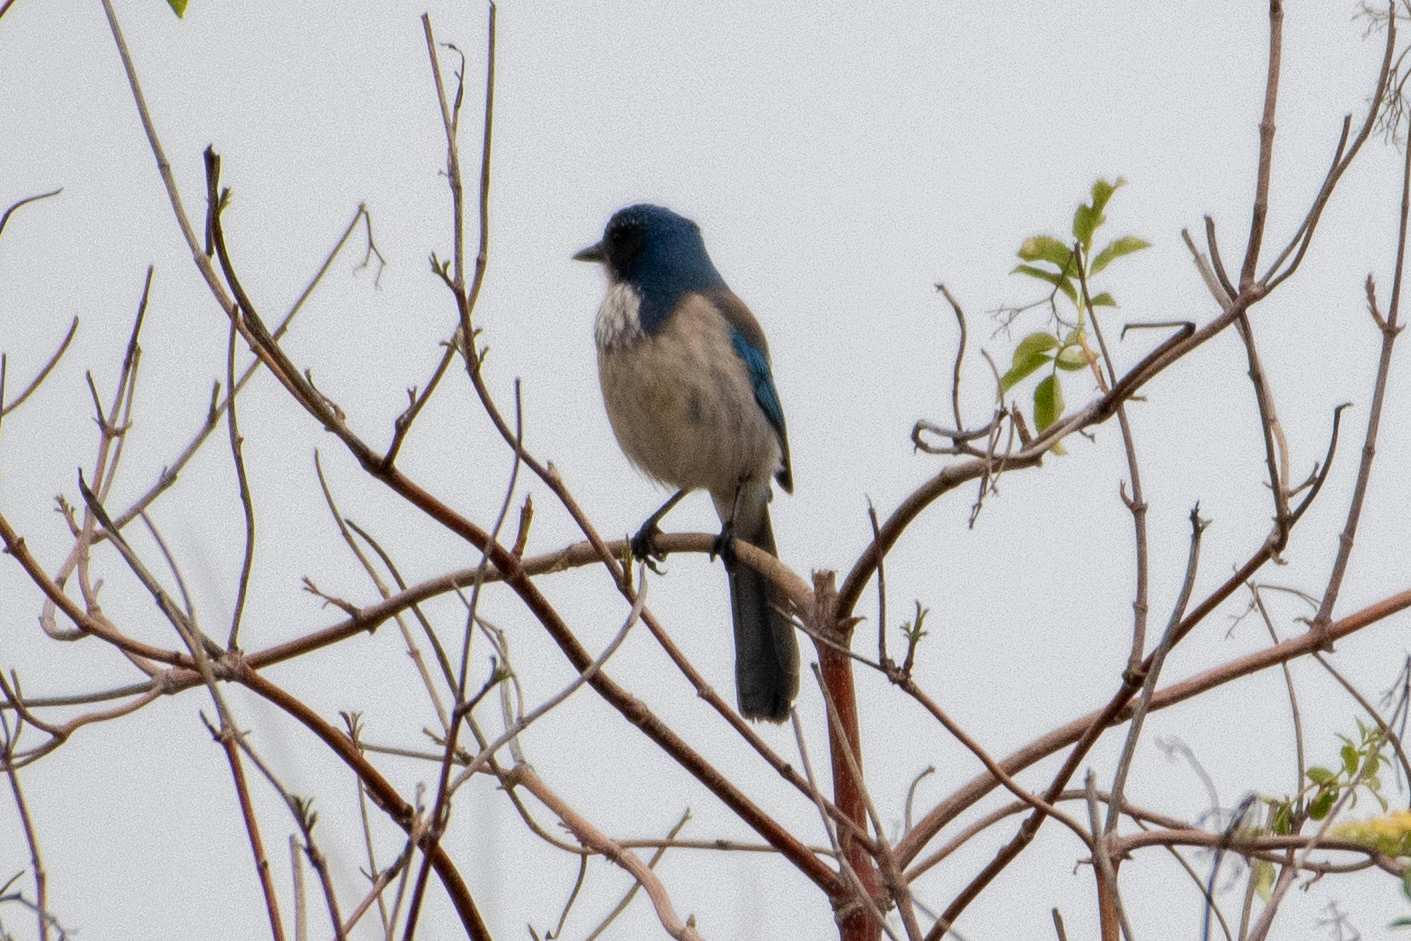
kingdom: Animalia
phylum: Chordata
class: Aves
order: Passeriformes
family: Corvidae
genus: Aphelocoma
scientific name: Aphelocoma californica
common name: California scrub-jay
